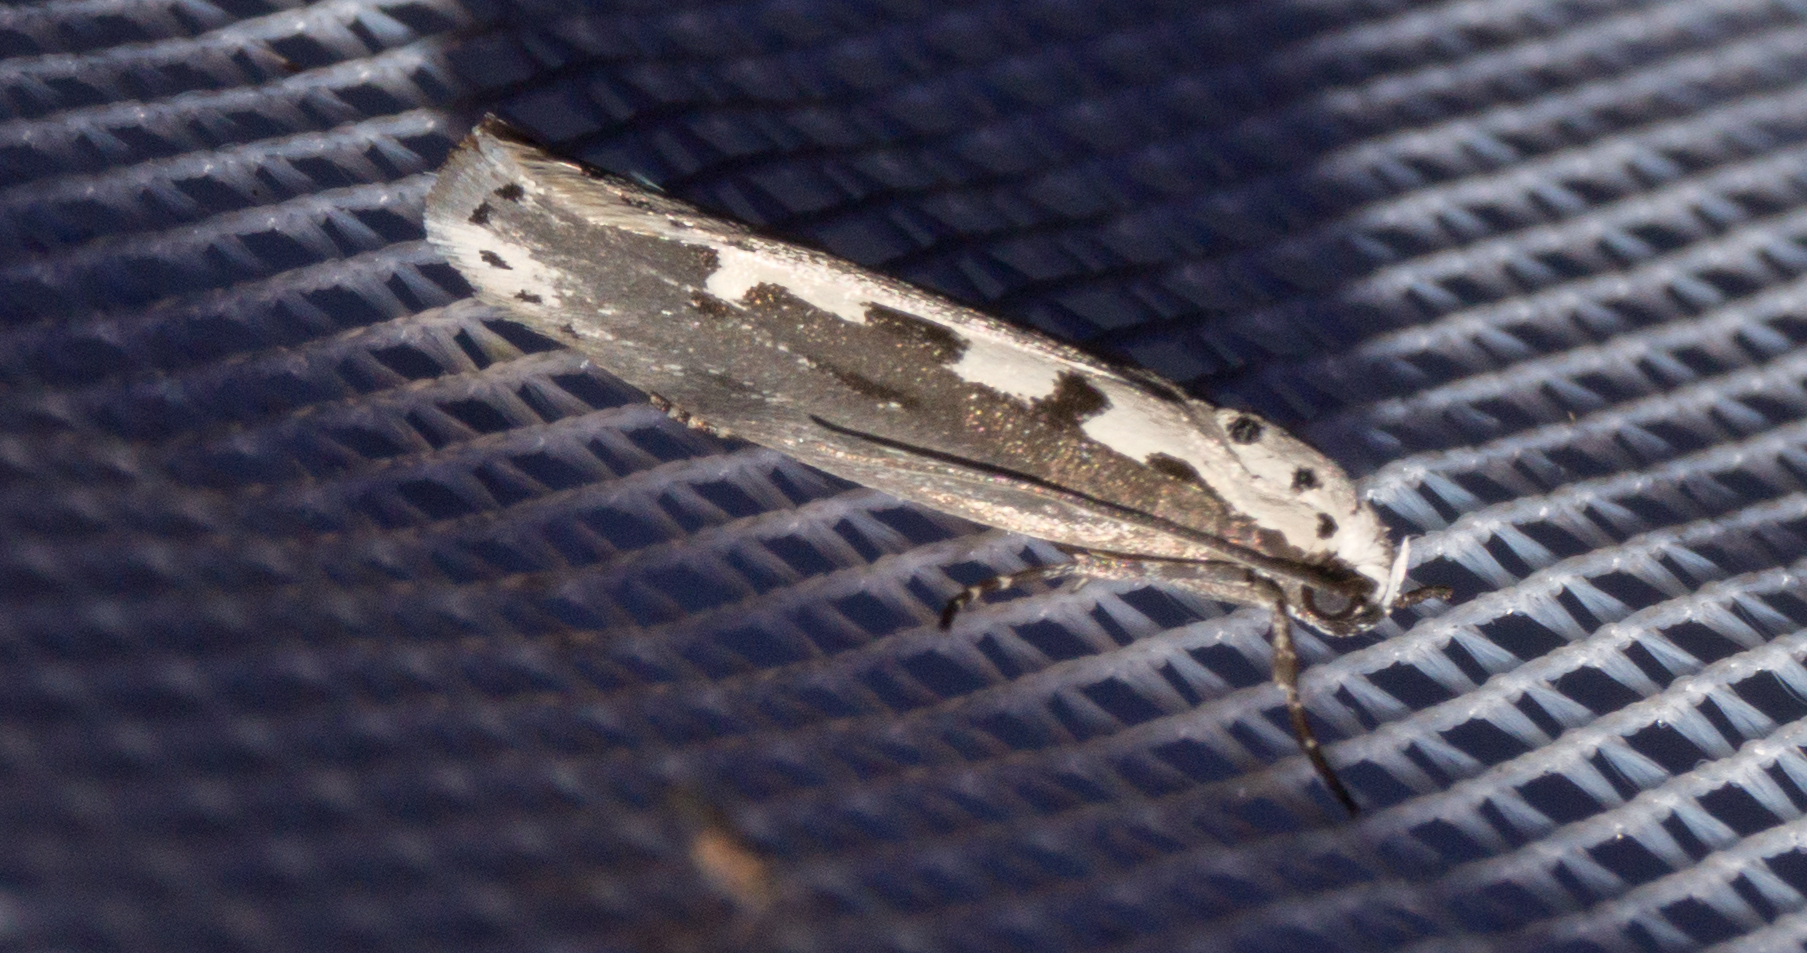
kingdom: Animalia
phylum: Arthropoda
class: Insecta
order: Lepidoptera
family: Ethmiidae
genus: Ethmia
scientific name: Ethmia bipunctella
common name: Bordered ermel
